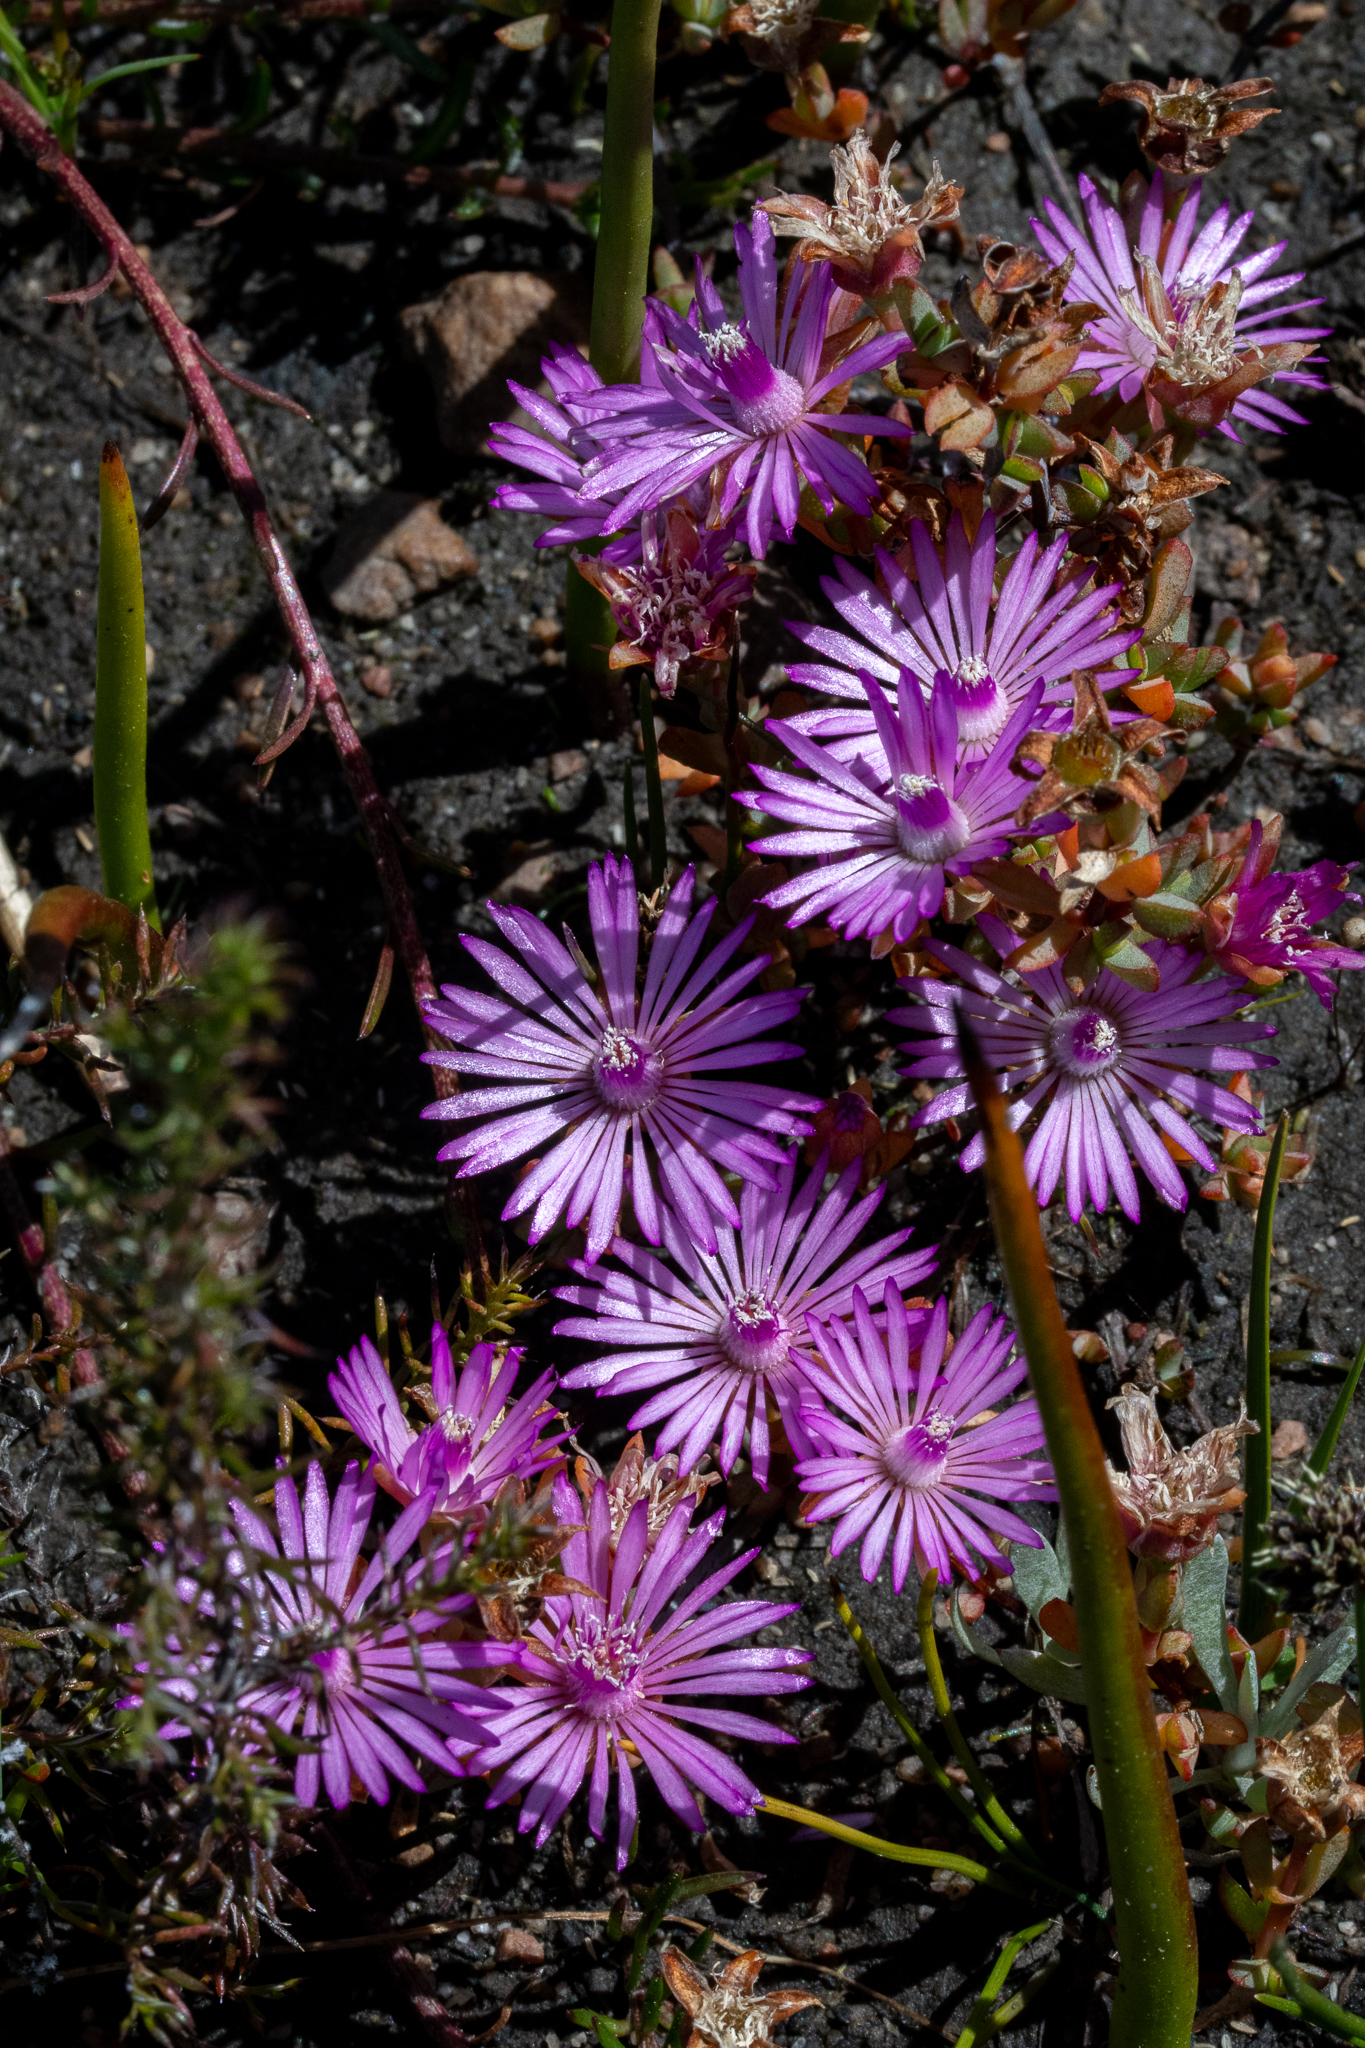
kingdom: Plantae
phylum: Tracheophyta
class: Magnoliopsida
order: Caryophyllales
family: Aizoaceae
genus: Lampranthus
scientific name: Lampranthus calcaratus
